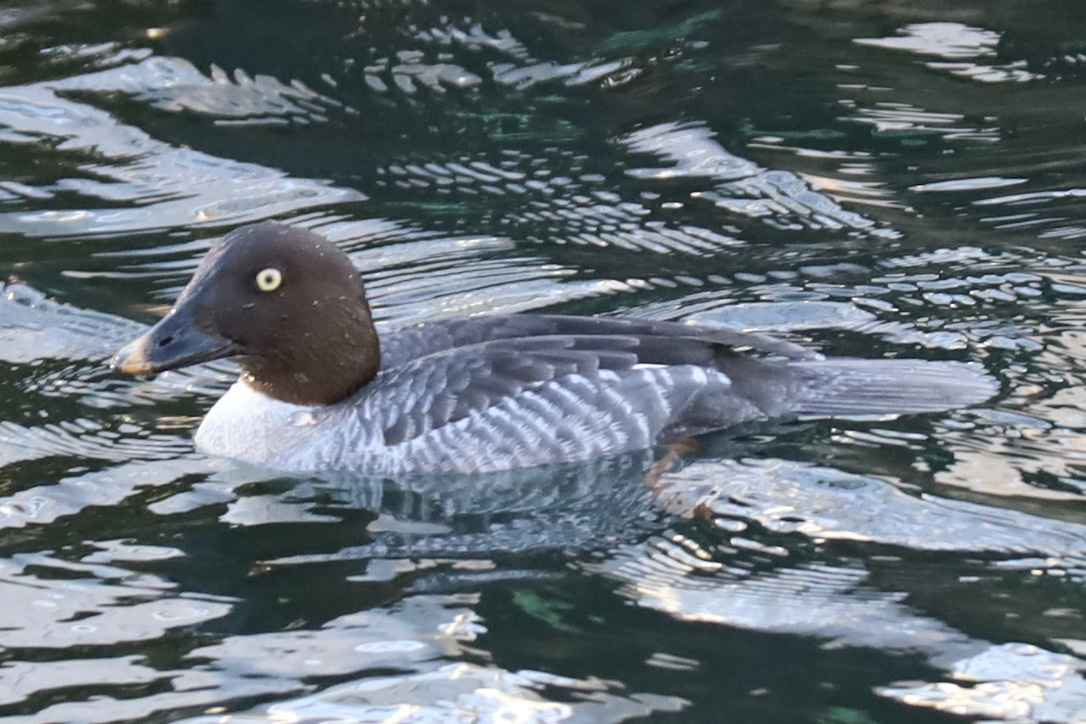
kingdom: Animalia
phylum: Chordata
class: Aves
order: Anseriformes
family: Anatidae
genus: Bucephala
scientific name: Bucephala clangula
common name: Common goldeneye
